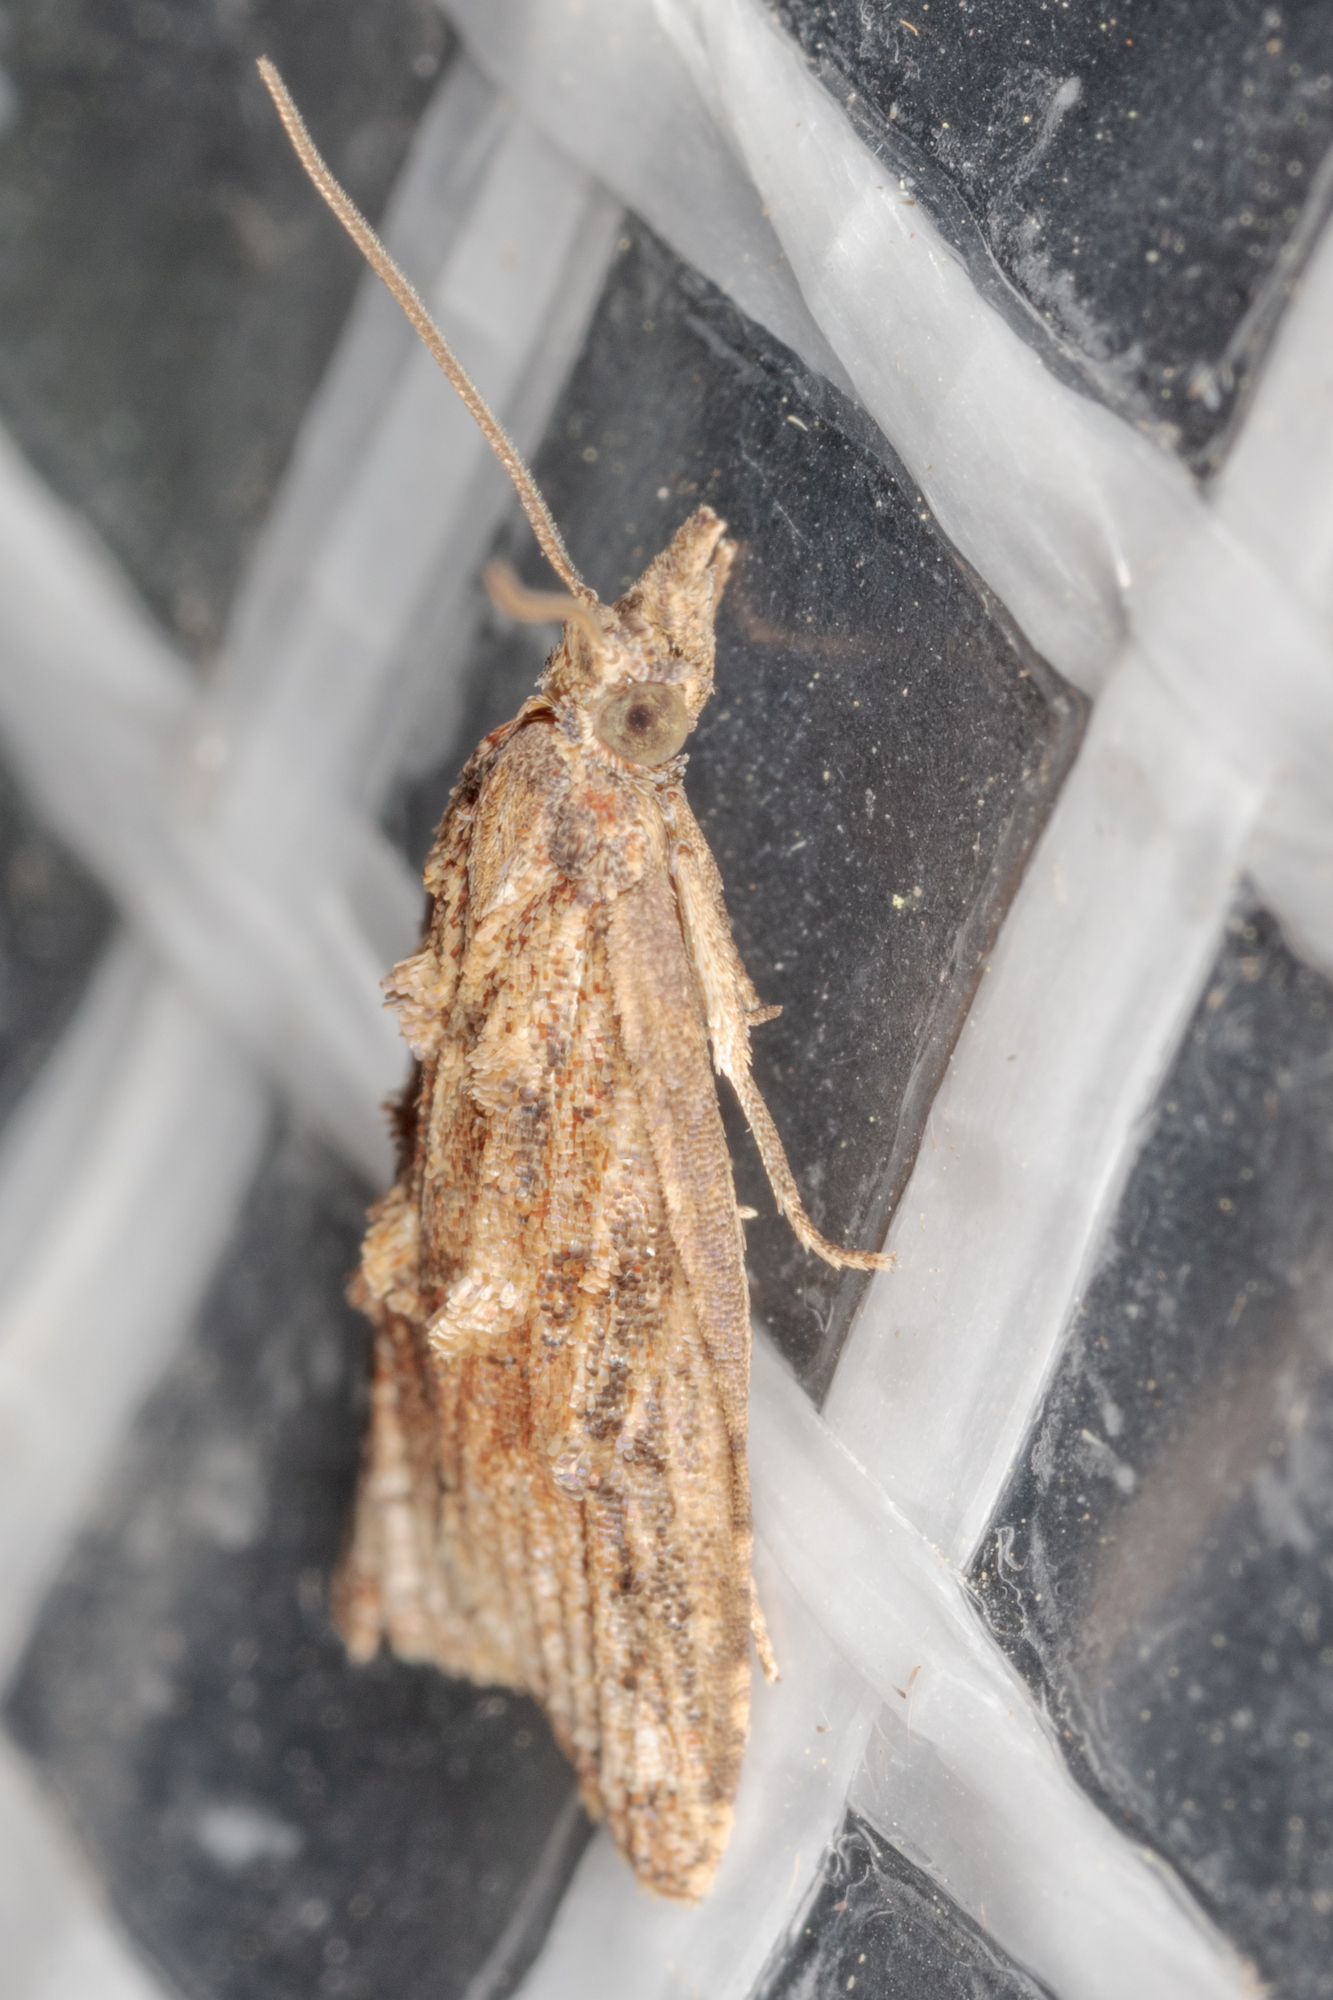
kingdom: Animalia
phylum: Arthropoda
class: Insecta
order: Lepidoptera
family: Tortricidae
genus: Platynota
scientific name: Platynota rostrana
